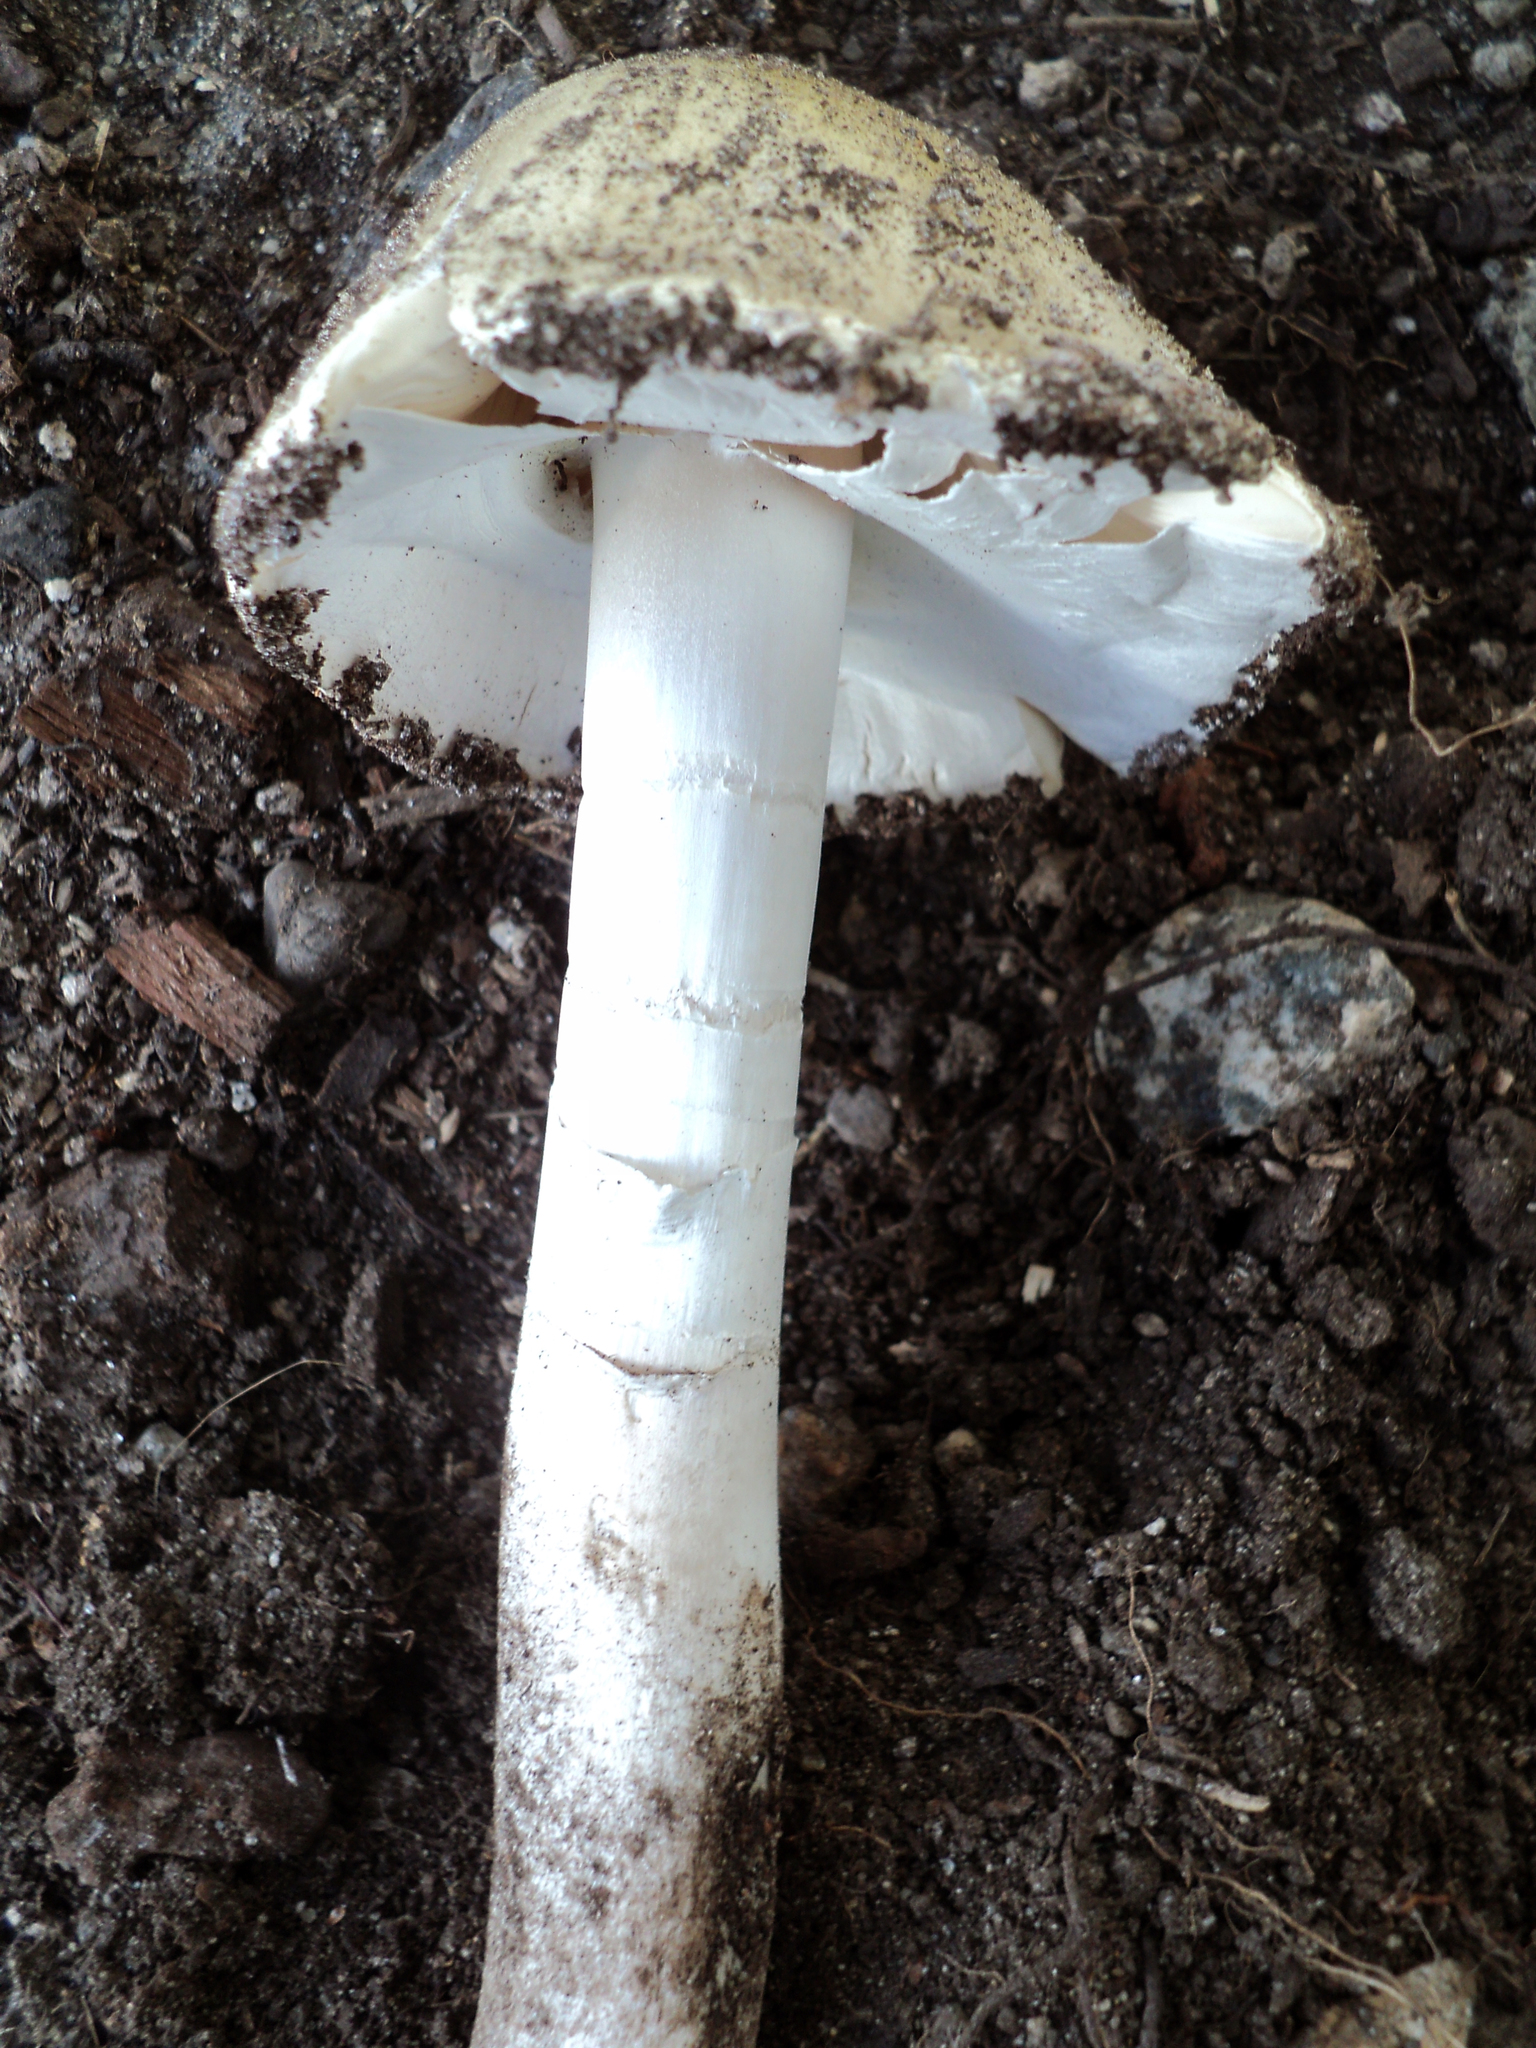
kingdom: Fungi
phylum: Basidiomycota
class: Agaricomycetes
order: Agaricales
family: Amanitaceae
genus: Amanita
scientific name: Amanita phalloides
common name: Death cap
